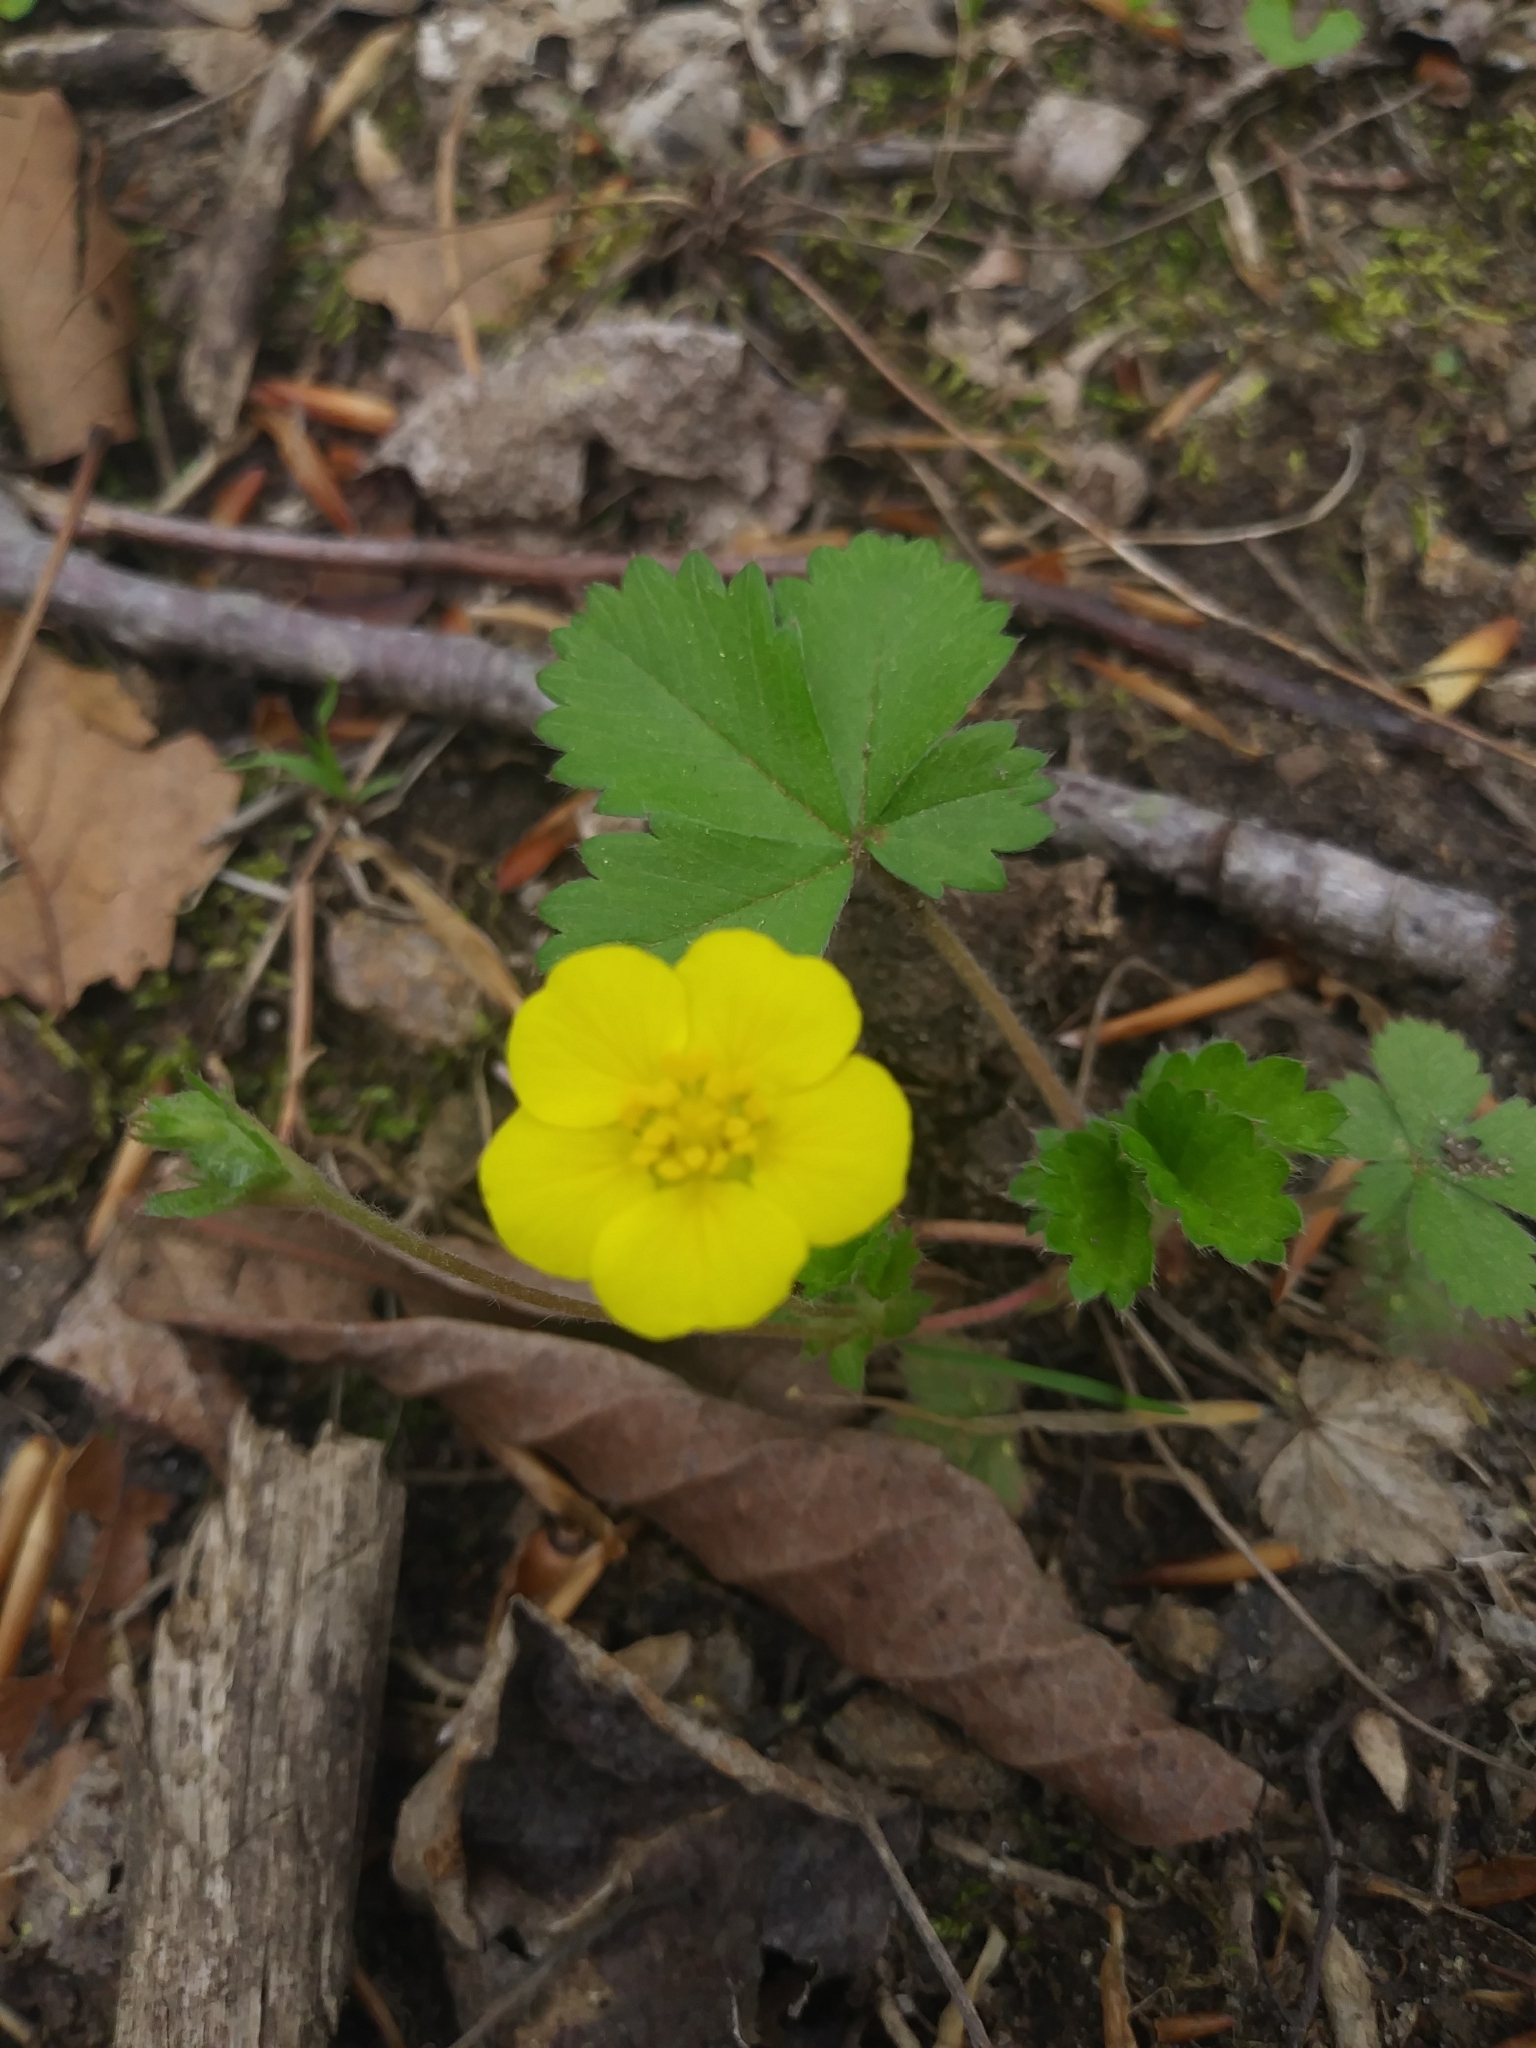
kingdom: Plantae
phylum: Tracheophyta
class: Magnoliopsida
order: Rosales
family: Rosaceae
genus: Potentilla
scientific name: Potentilla canadensis
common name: Canada cinquefoil
